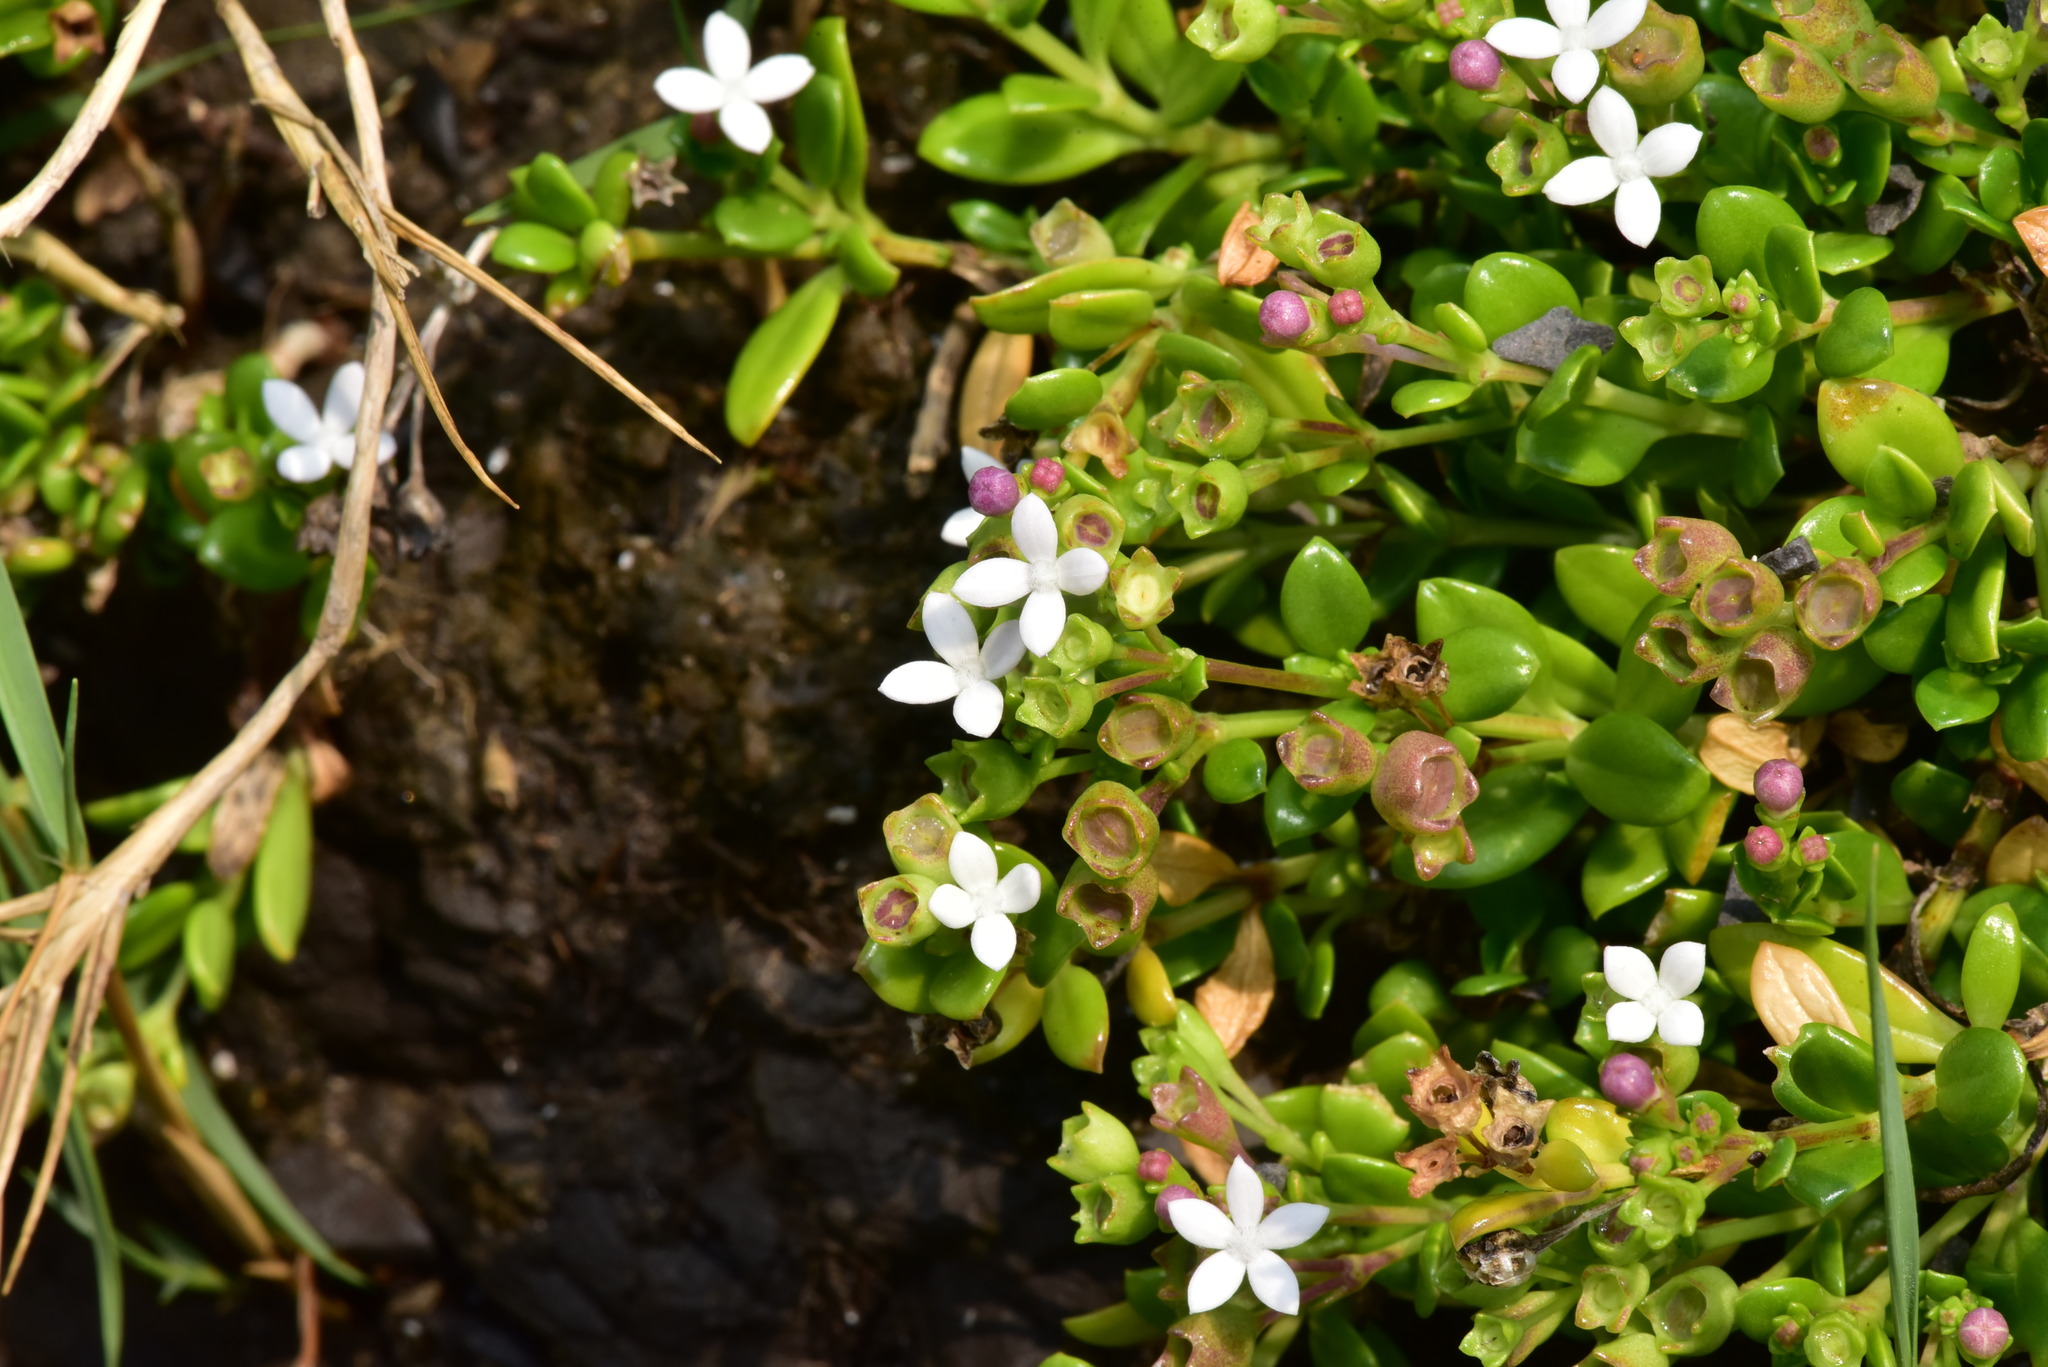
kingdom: Plantae
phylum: Tracheophyta
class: Magnoliopsida
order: Gentianales
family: Rubiaceae
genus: Leptopetalum
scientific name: Leptopetalum strigulosum
